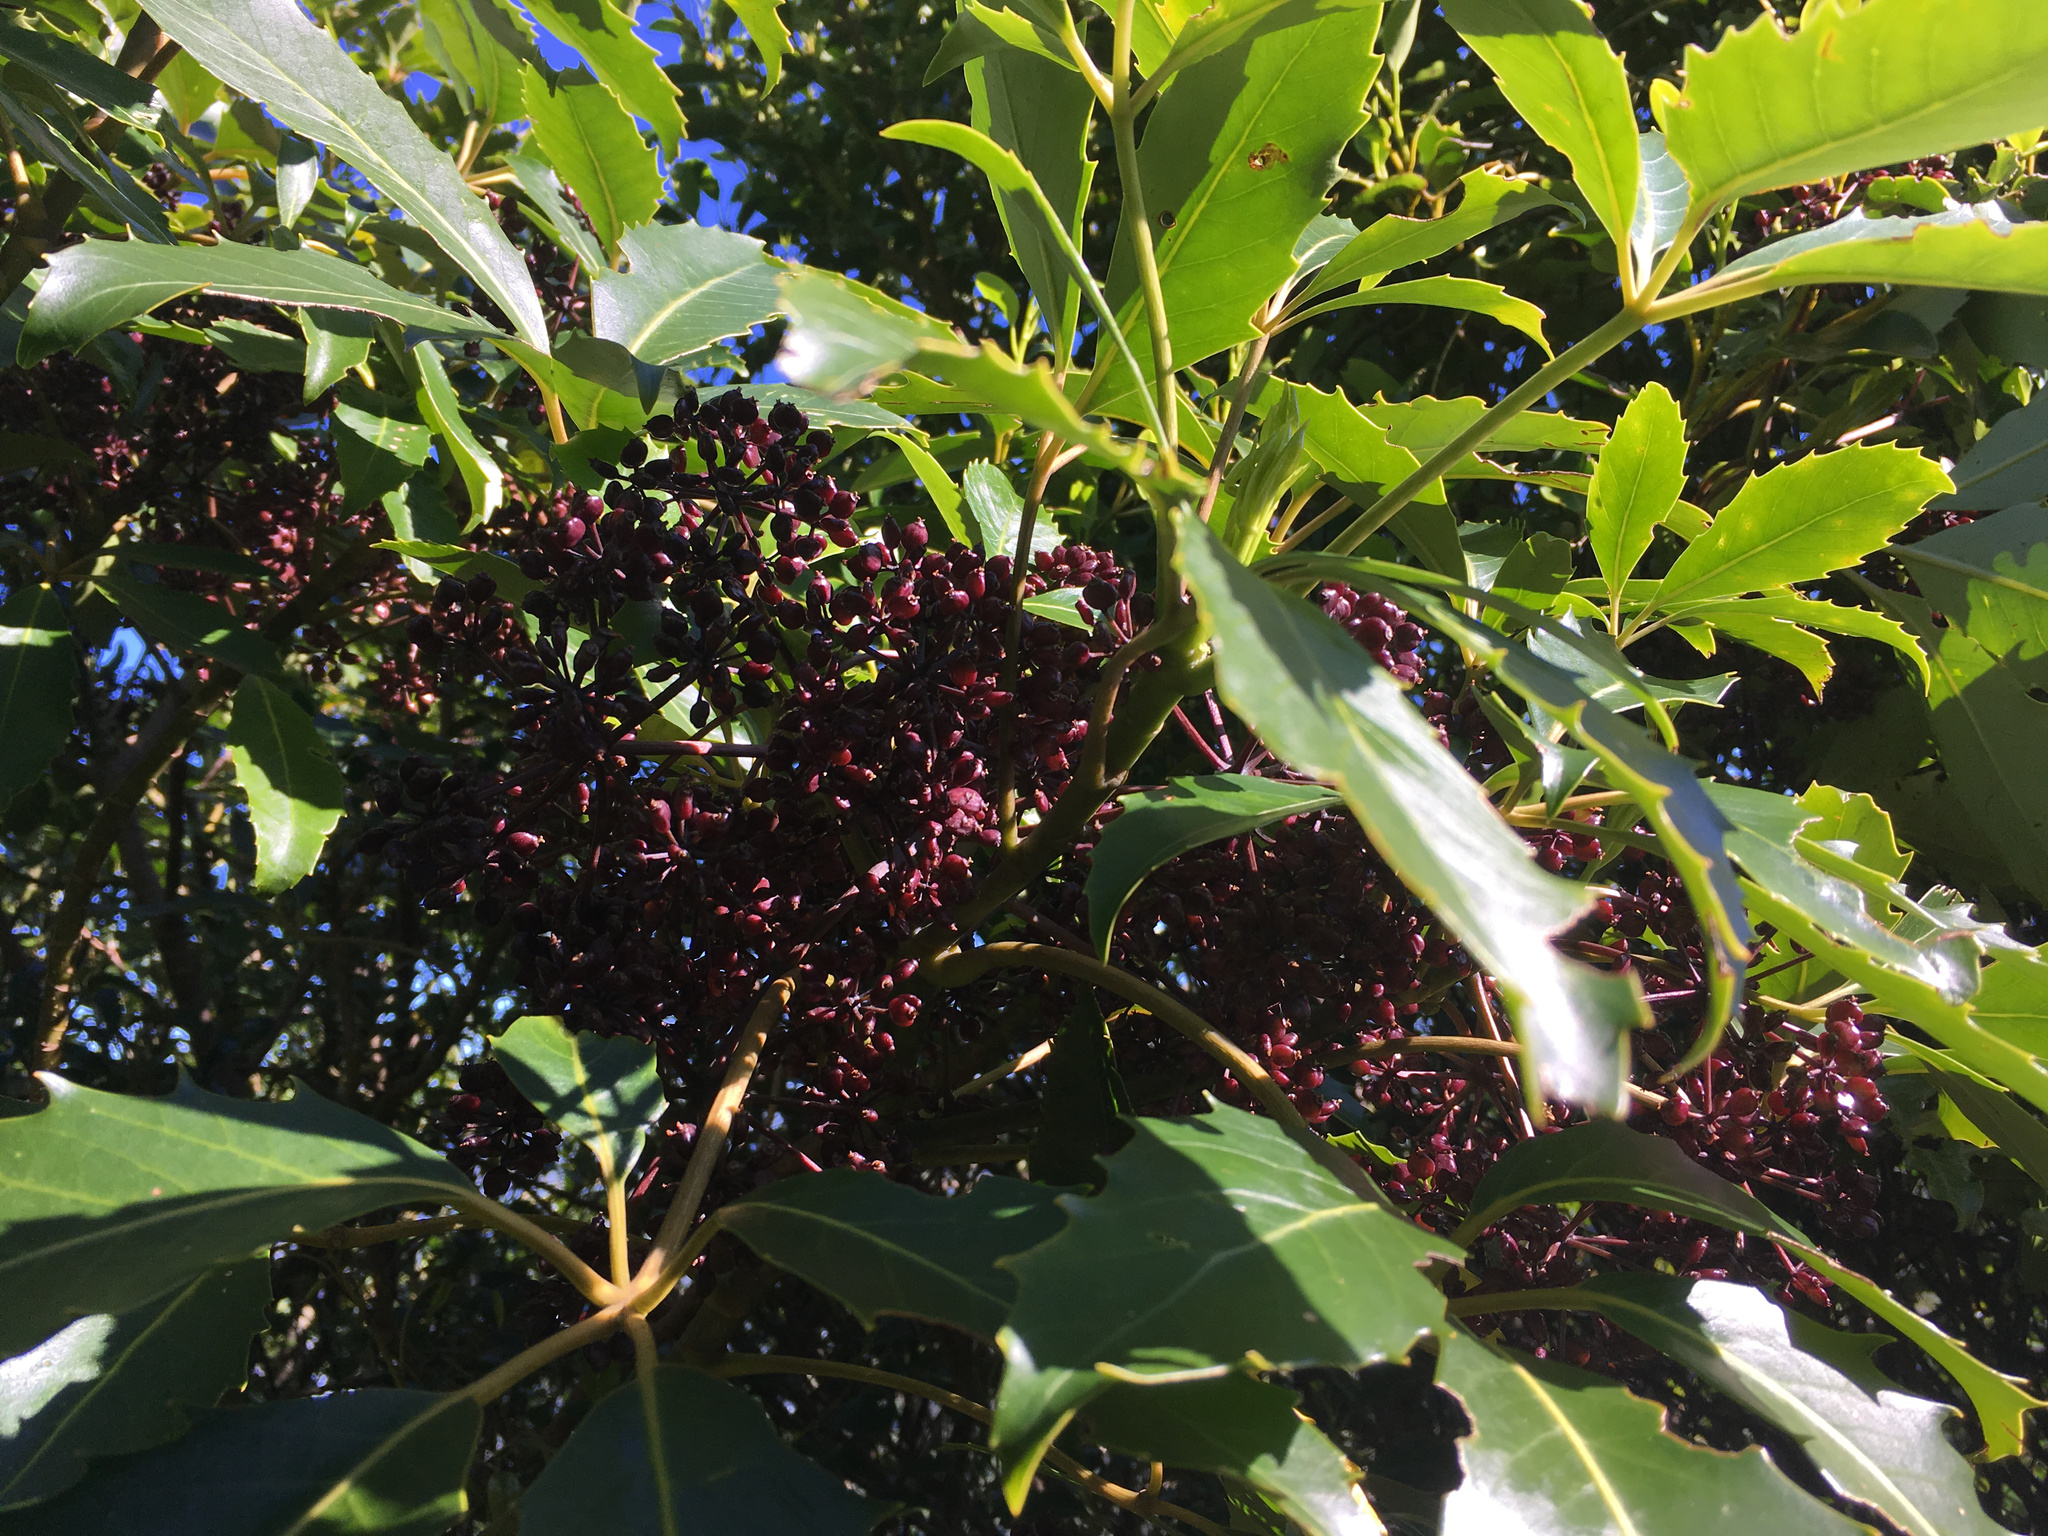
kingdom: Plantae
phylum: Tracheophyta
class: Magnoliopsida
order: Apiales
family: Araliaceae
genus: Neopanax
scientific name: Neopanax arboreus
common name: Five-fingers
